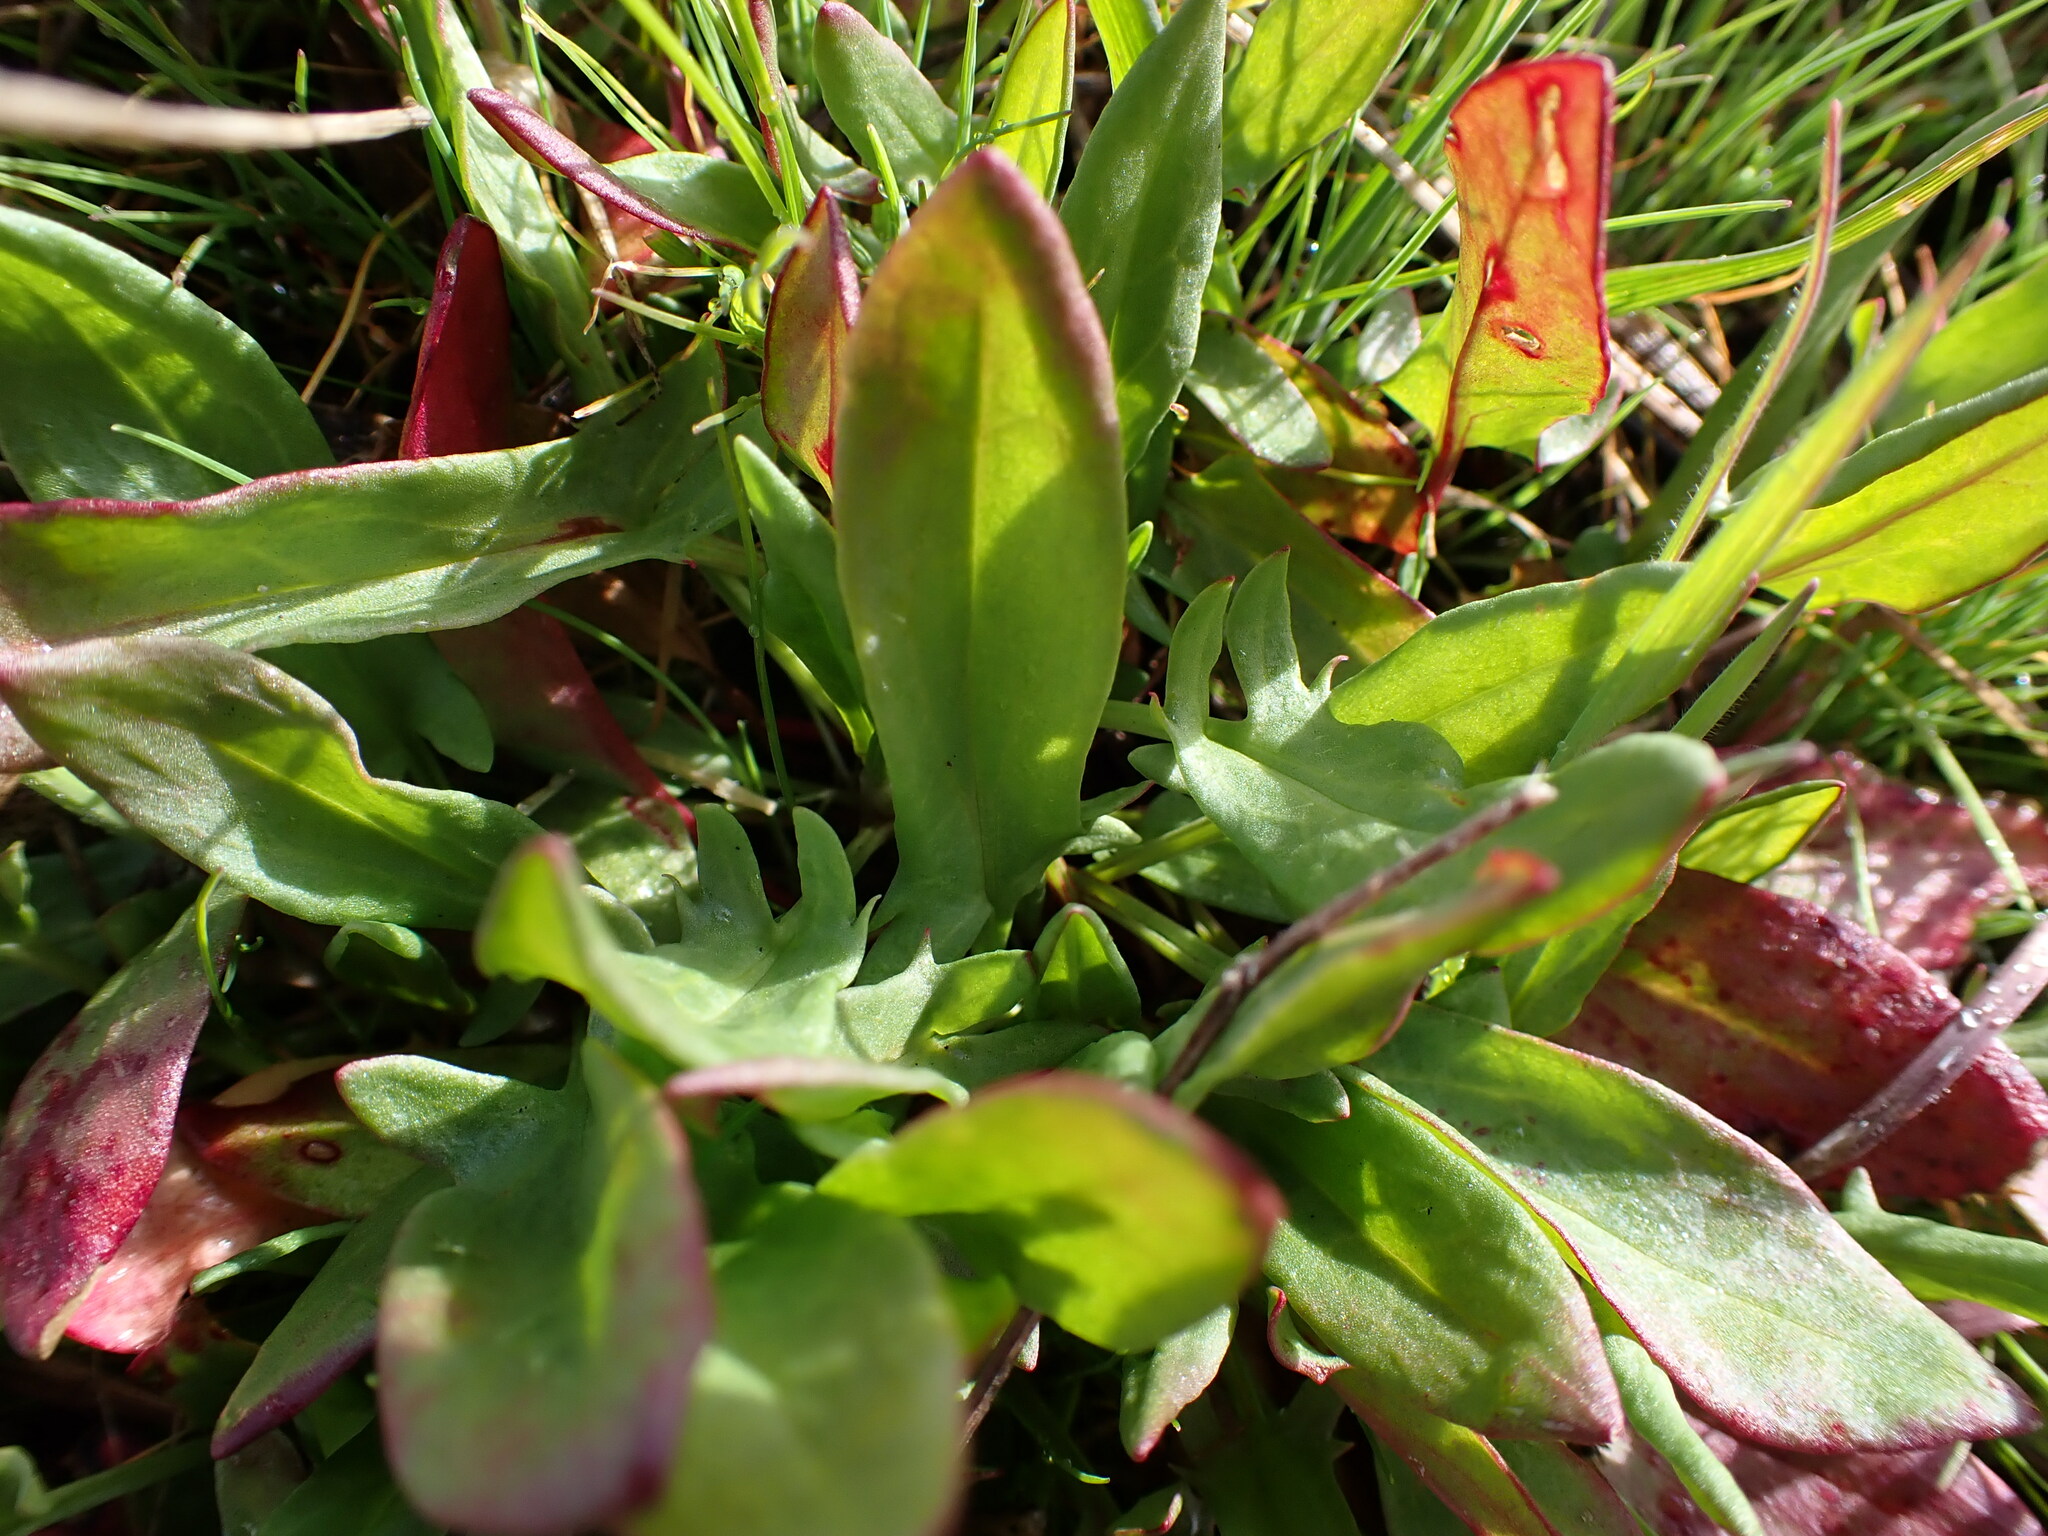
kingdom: Plantae
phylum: Tracheophyta
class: Magnoliopsida
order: Caryophyllales
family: Polygonaceae
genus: Rumex
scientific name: Rumex acetosella
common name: Common sheep sorrel
